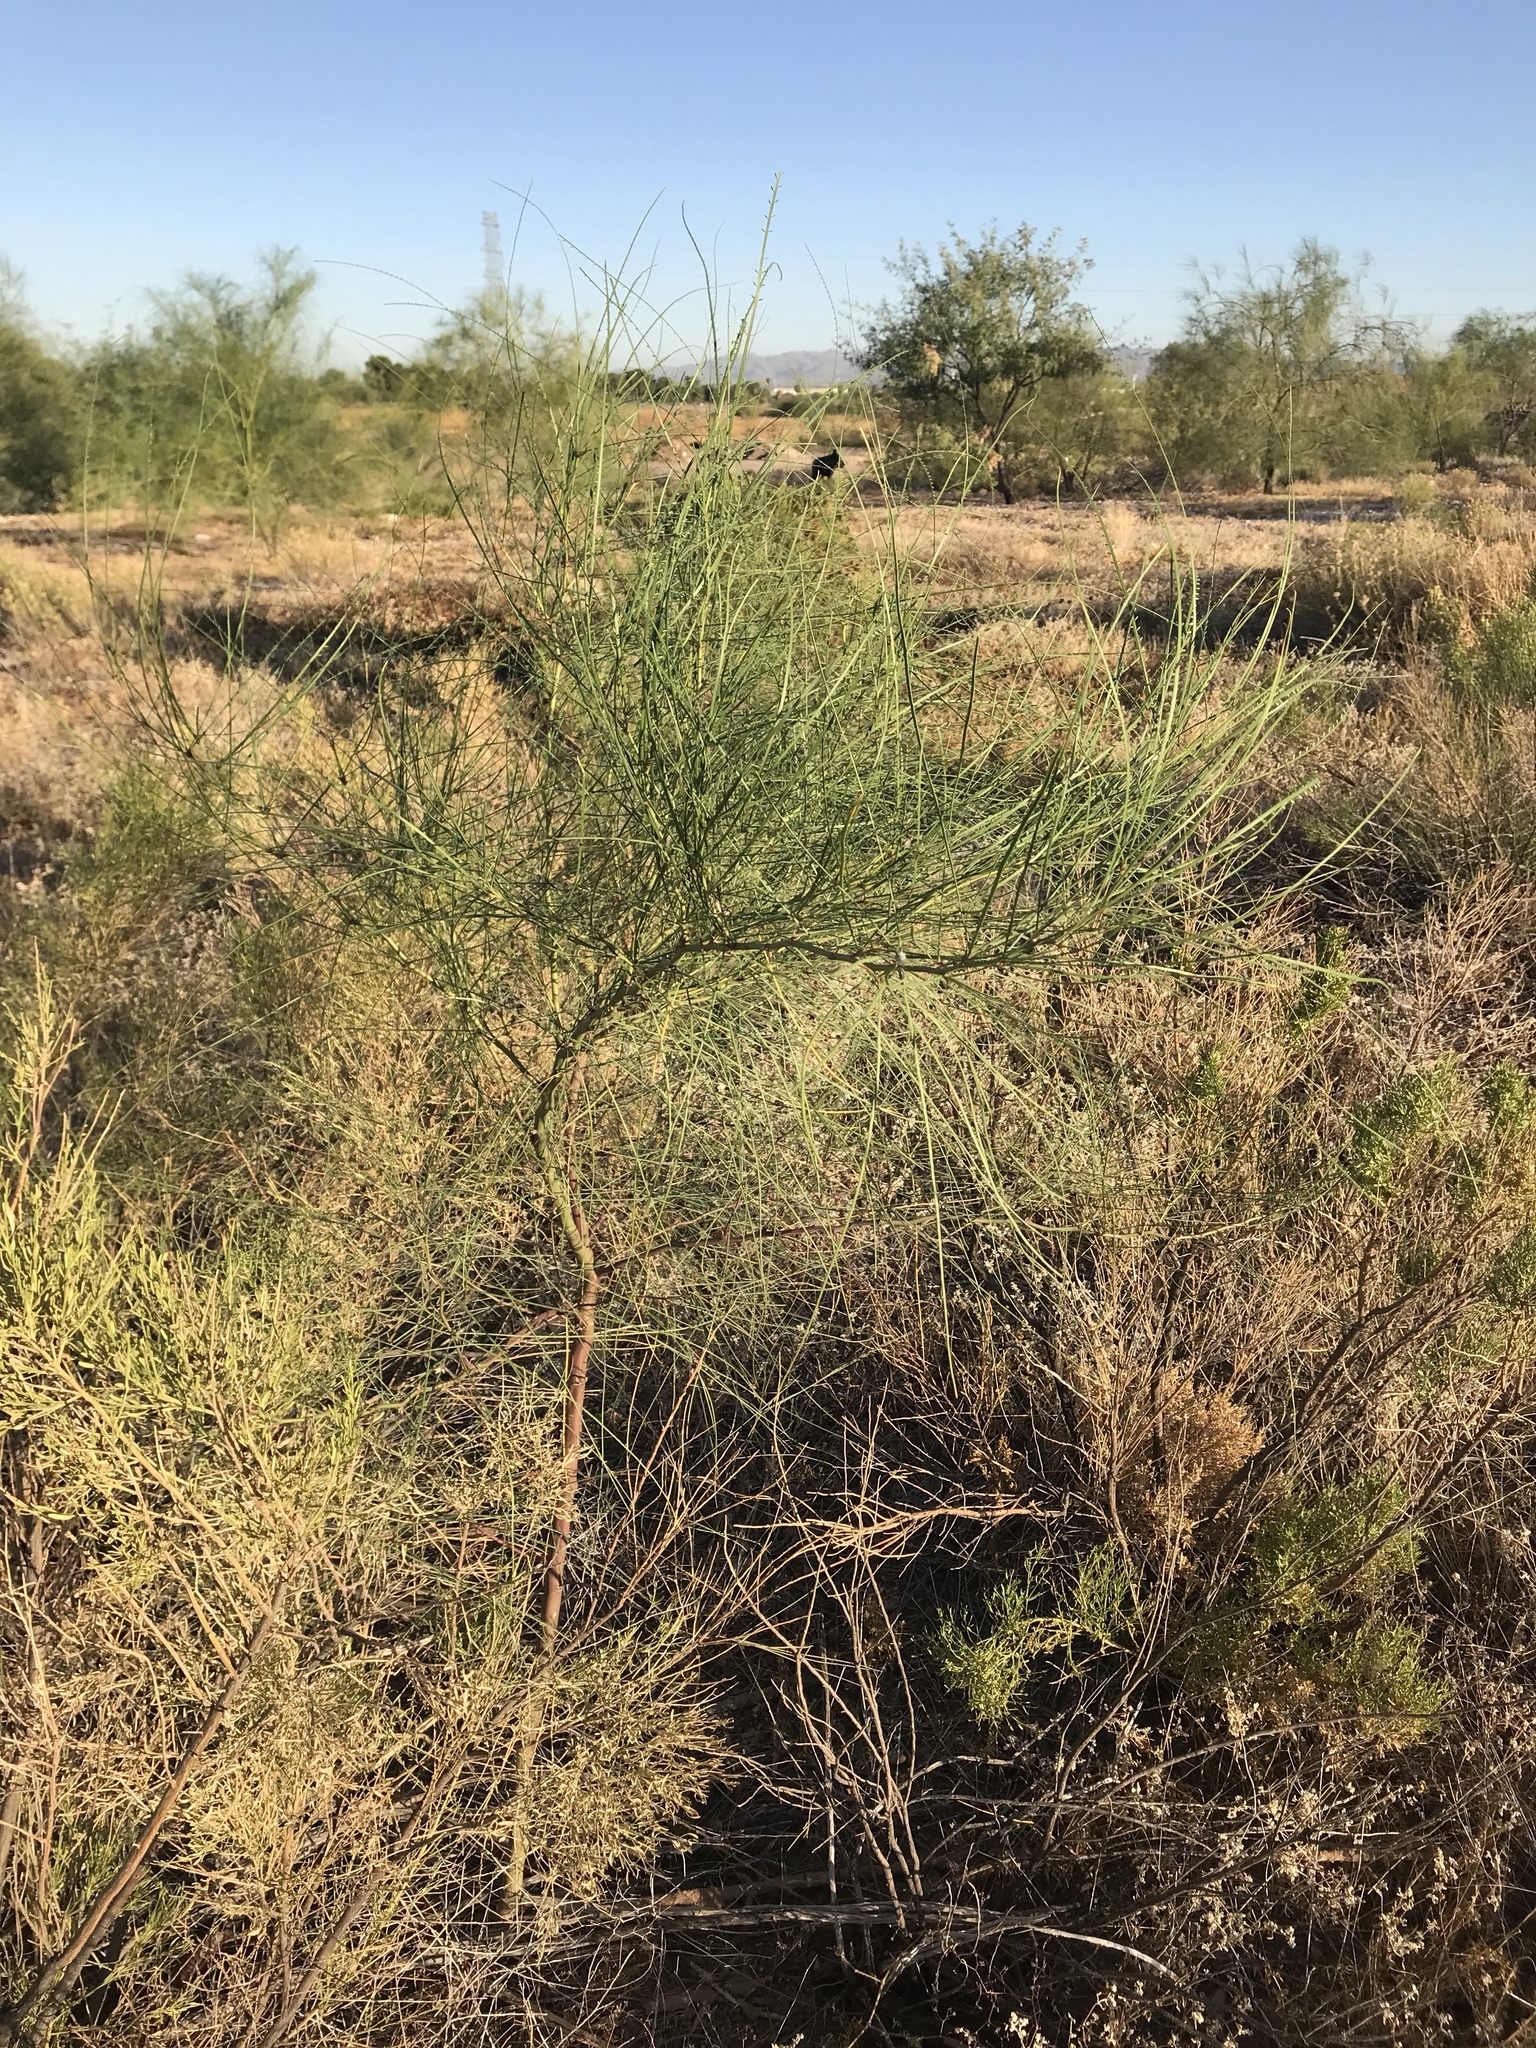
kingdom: Plantae
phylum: Tracheophyta
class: Magnoliopsida
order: Fabales
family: Fabaceae
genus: Parkinsonia
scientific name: Parkinsonia aculeata
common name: Jerusalem thorn
